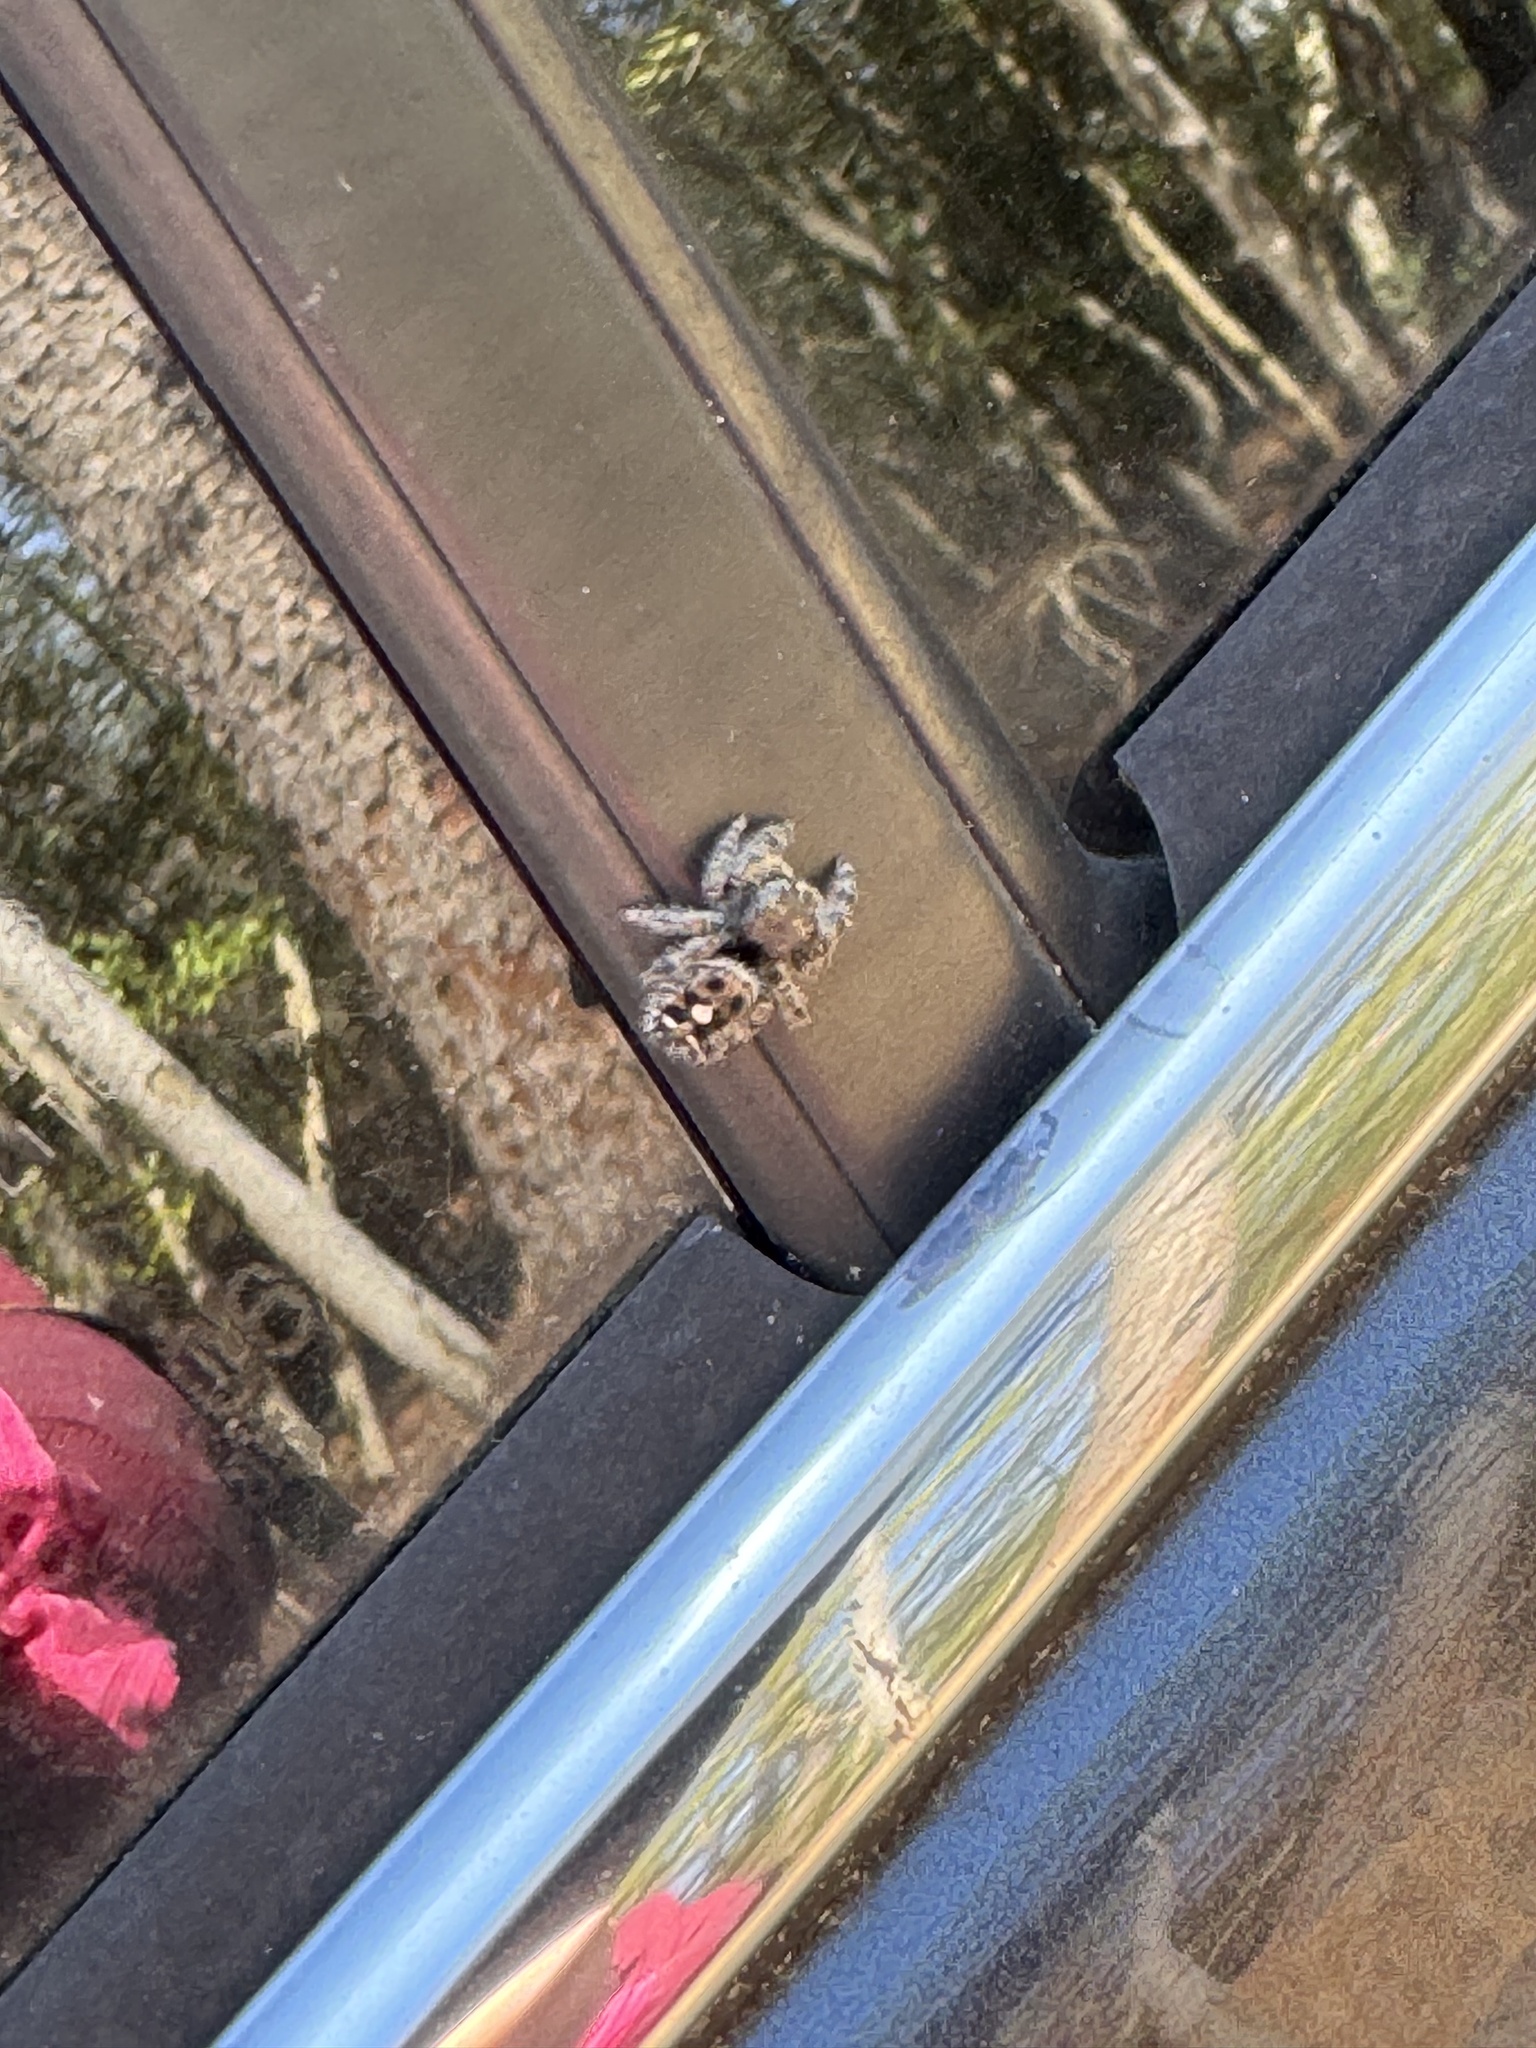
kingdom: Animalia
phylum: Arthropoda
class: Arachnida
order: Araneae
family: Salticidae
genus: Phidippus
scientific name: Phidippus audax
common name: Bold jumper
